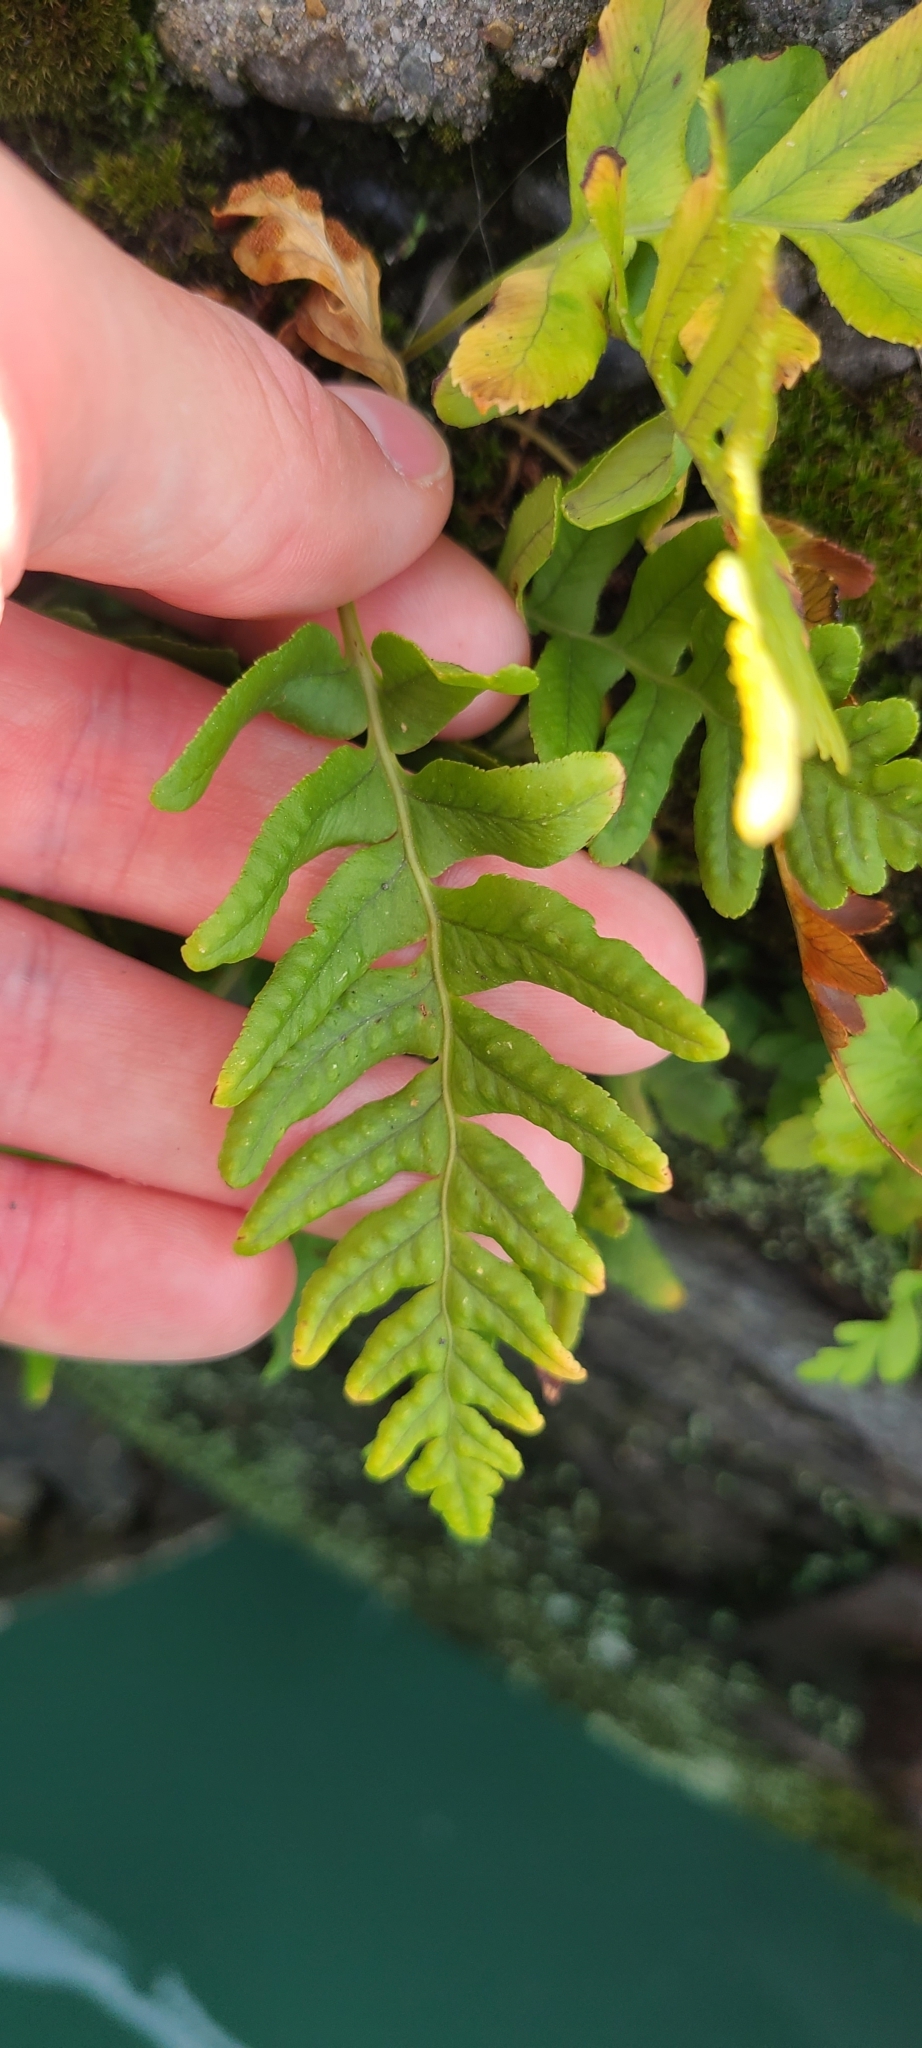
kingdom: Plantae
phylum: Tracheophyta
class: Polypodiopsida
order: Polypodiales
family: Polypodiaceae
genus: Polypodium
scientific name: Polypodium vulgare
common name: Common polypody
